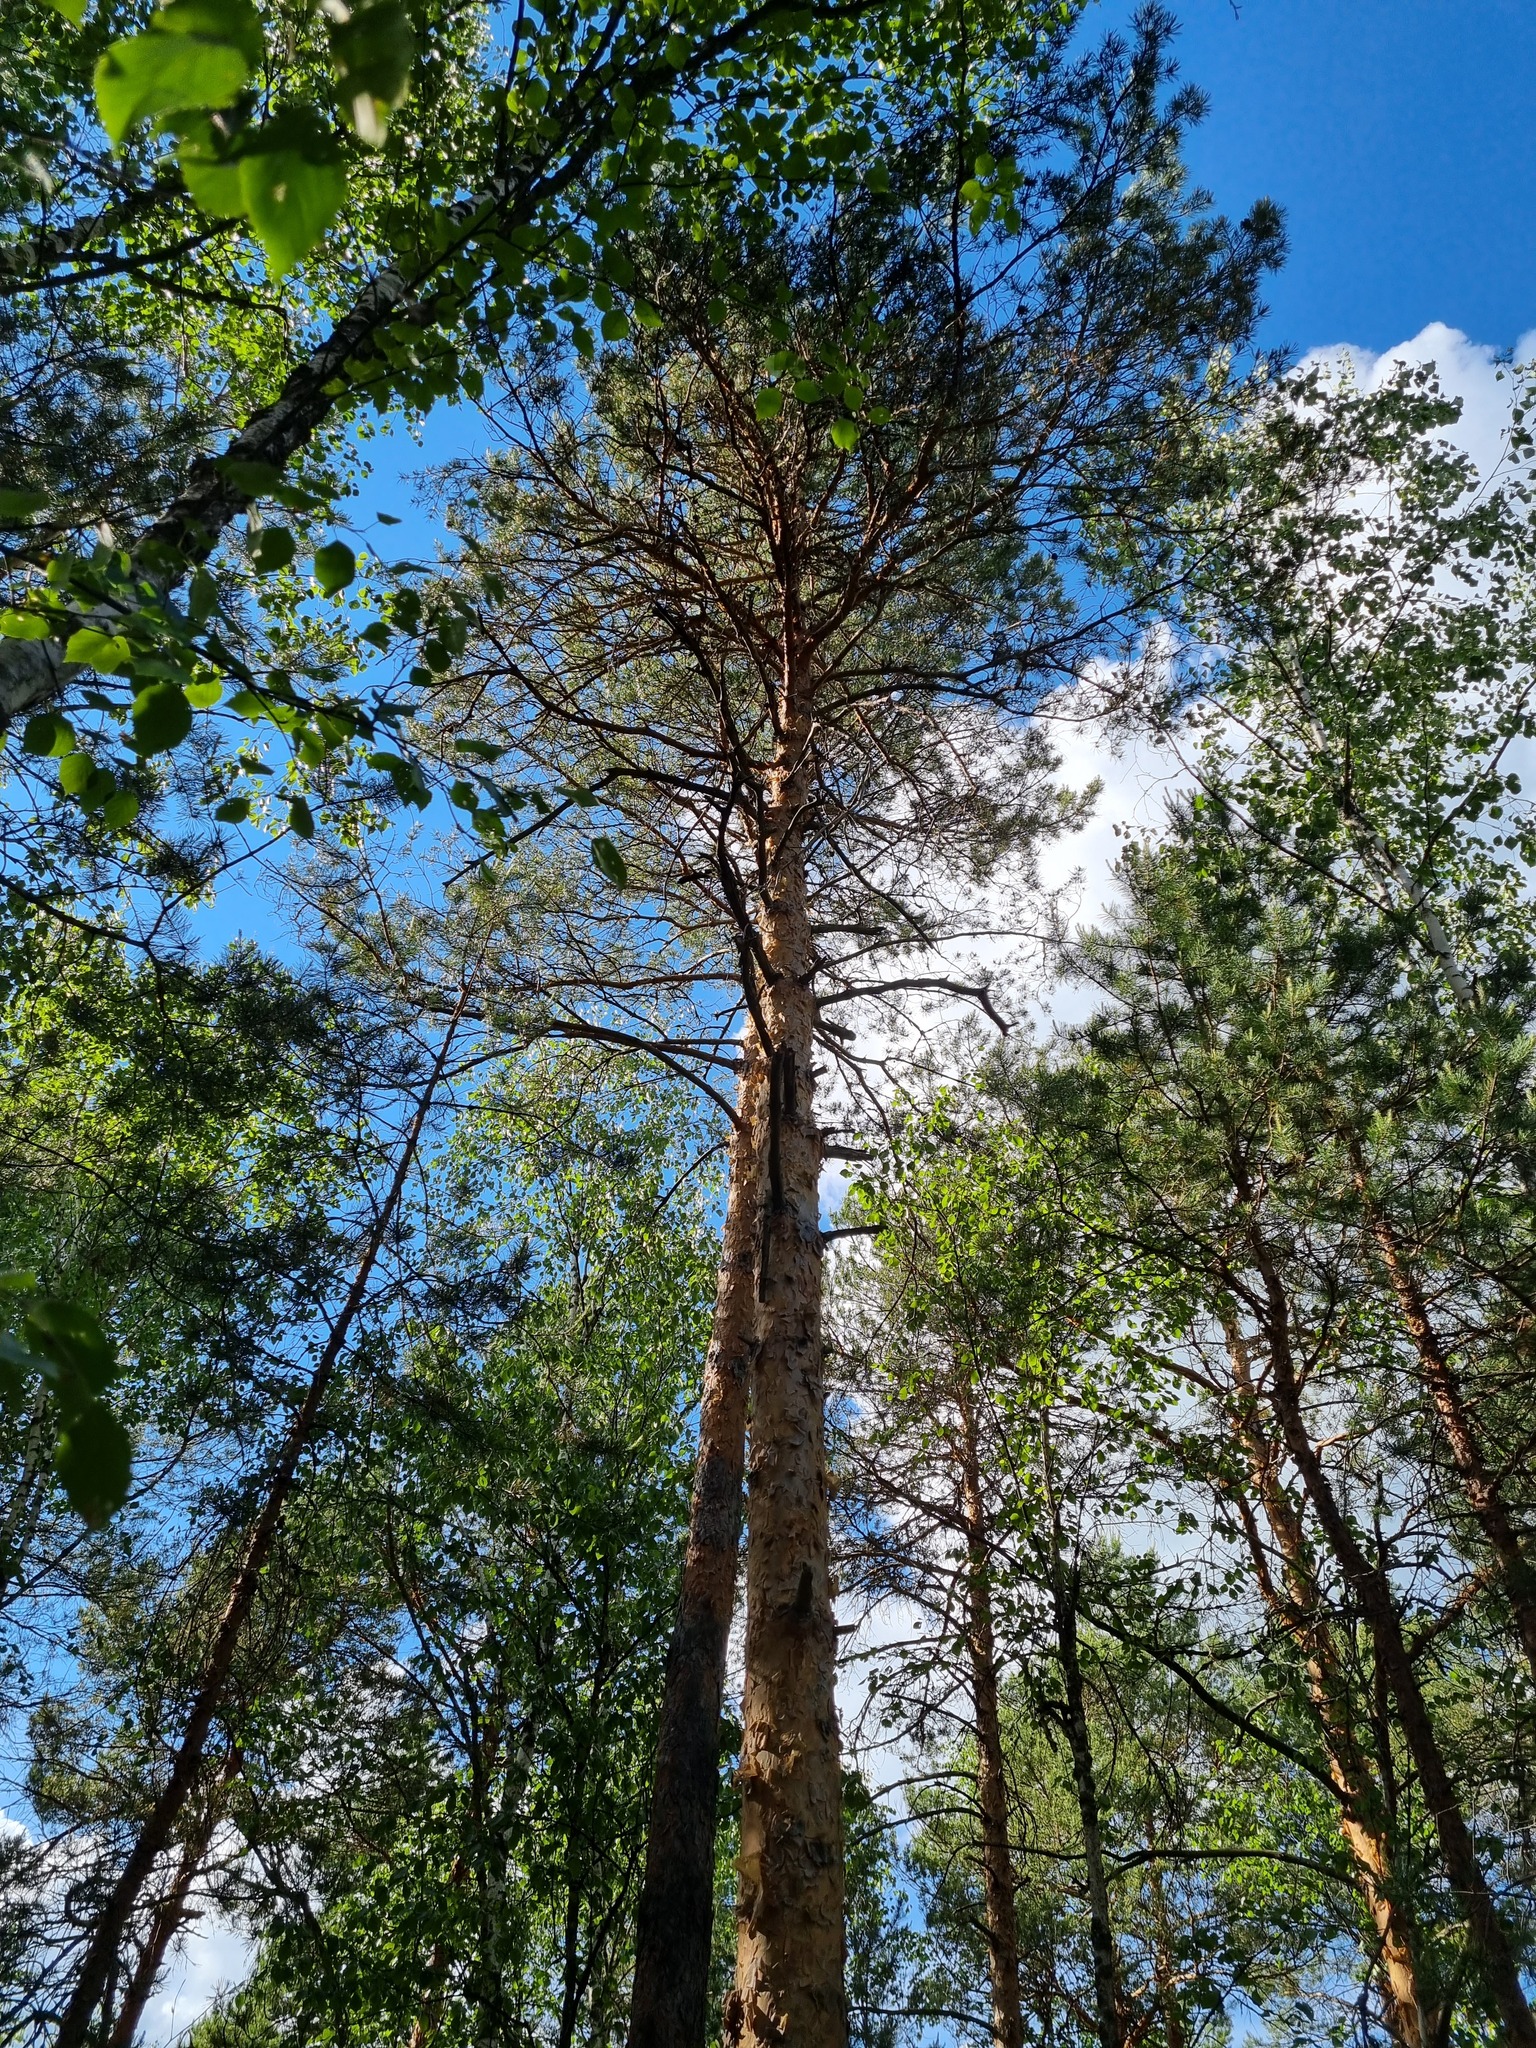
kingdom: Plantae
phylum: Tracheophyta
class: Pinopsida
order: Pinales
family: Pinaceae
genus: Pinus
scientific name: Pinus sylvestris
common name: Scots pine
